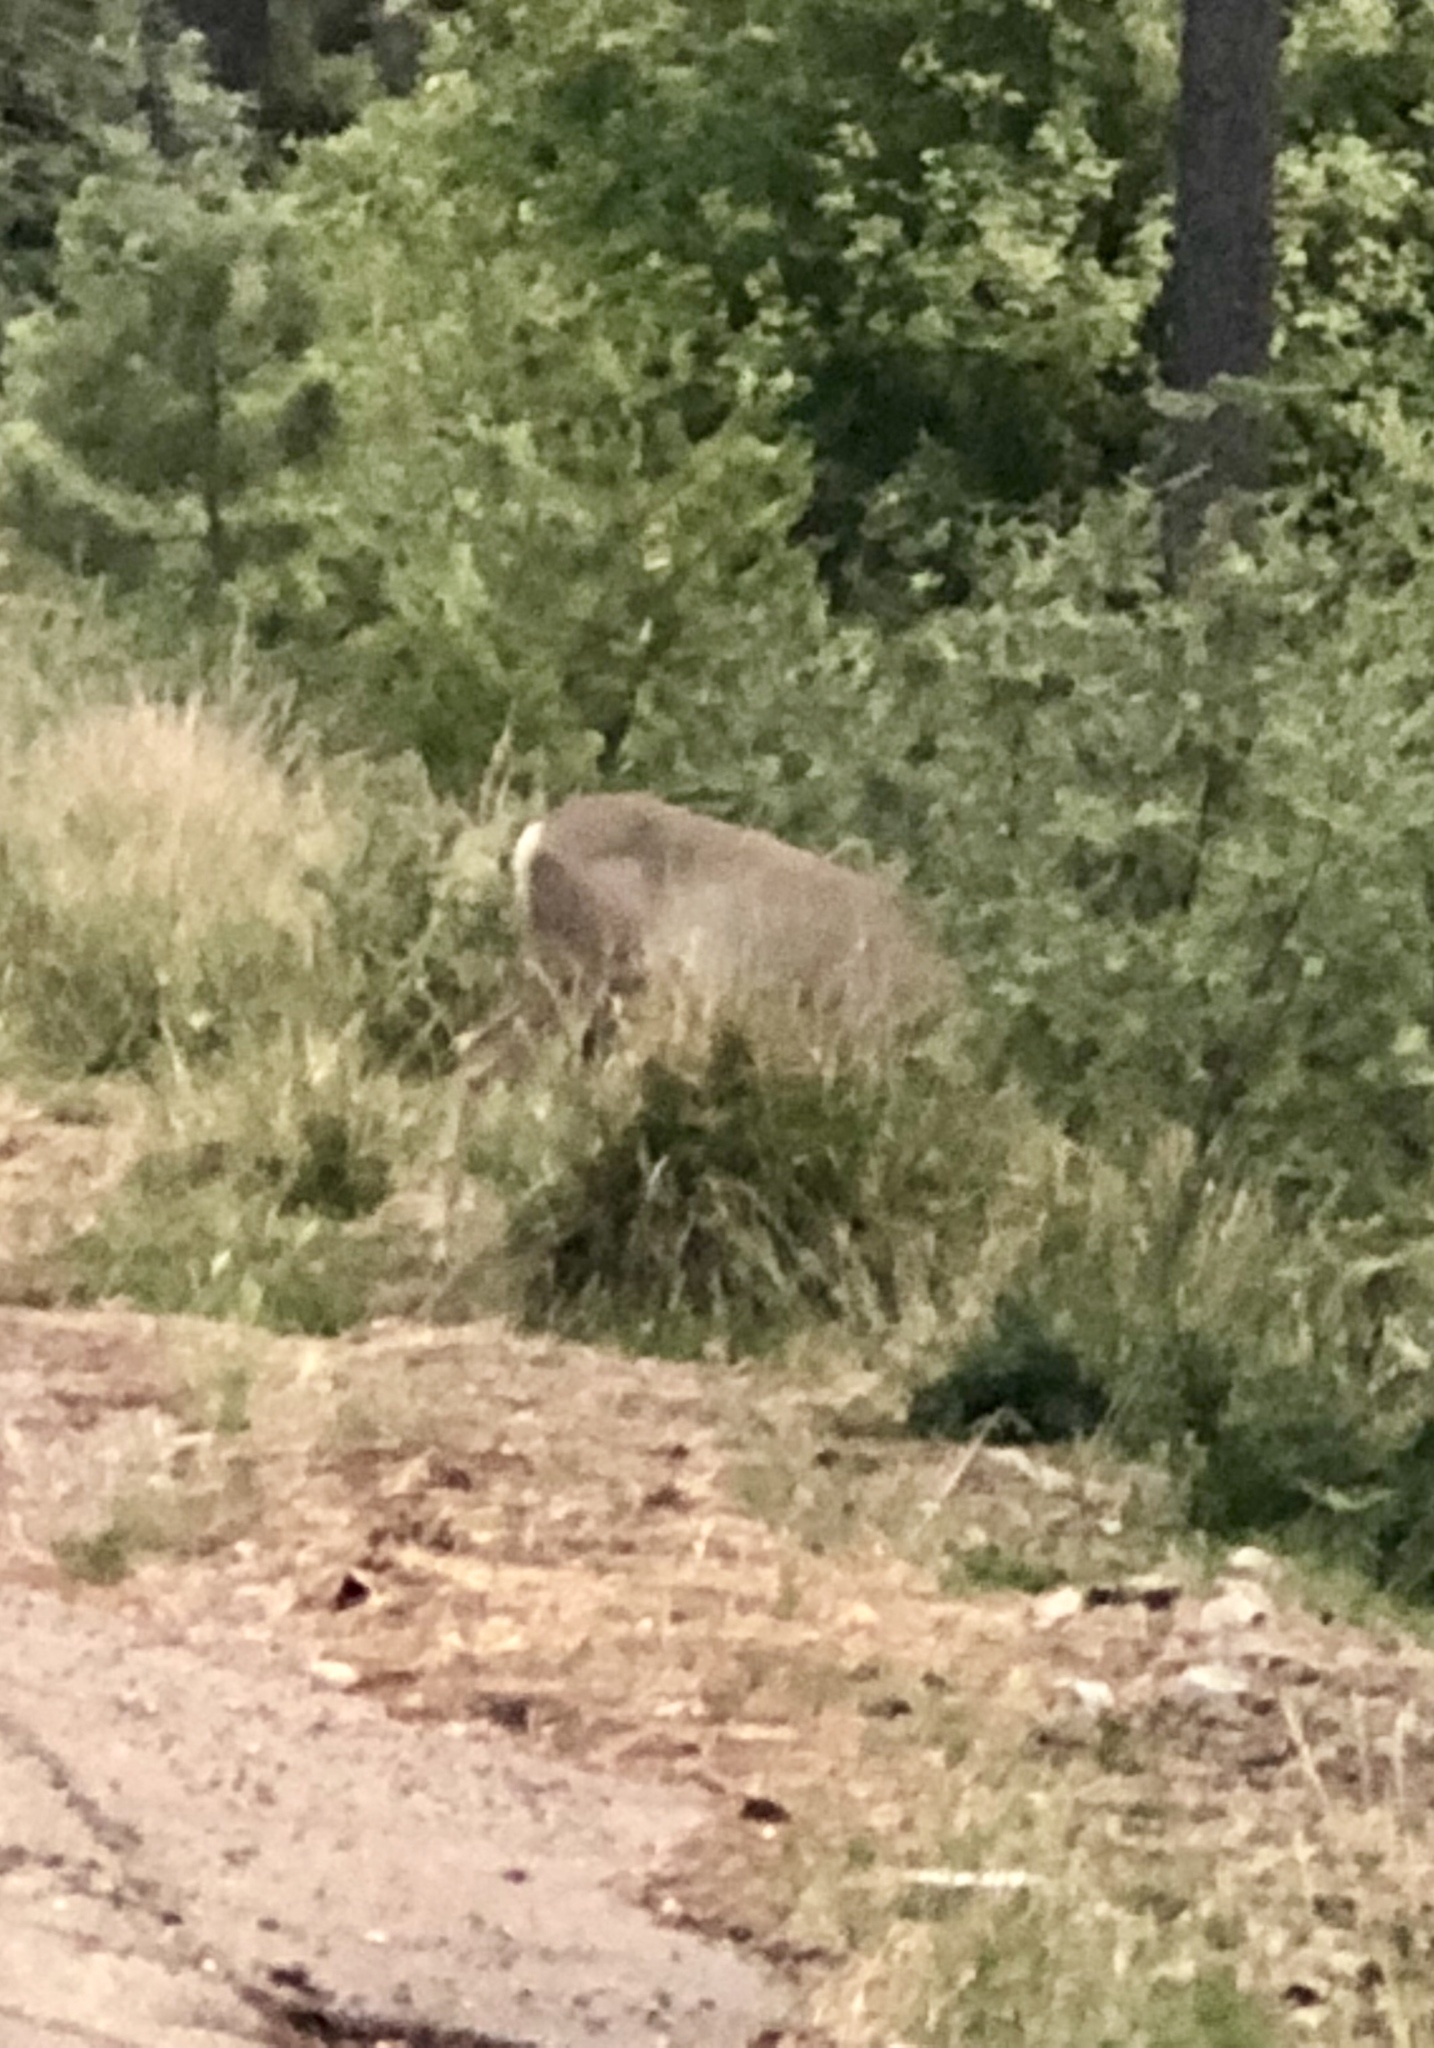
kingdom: Animalia
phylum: Chordata
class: Mammalia
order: Artiodactyla
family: Cervidae
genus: Odocoileus
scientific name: Odocoileus hemionus
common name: Mule deer
